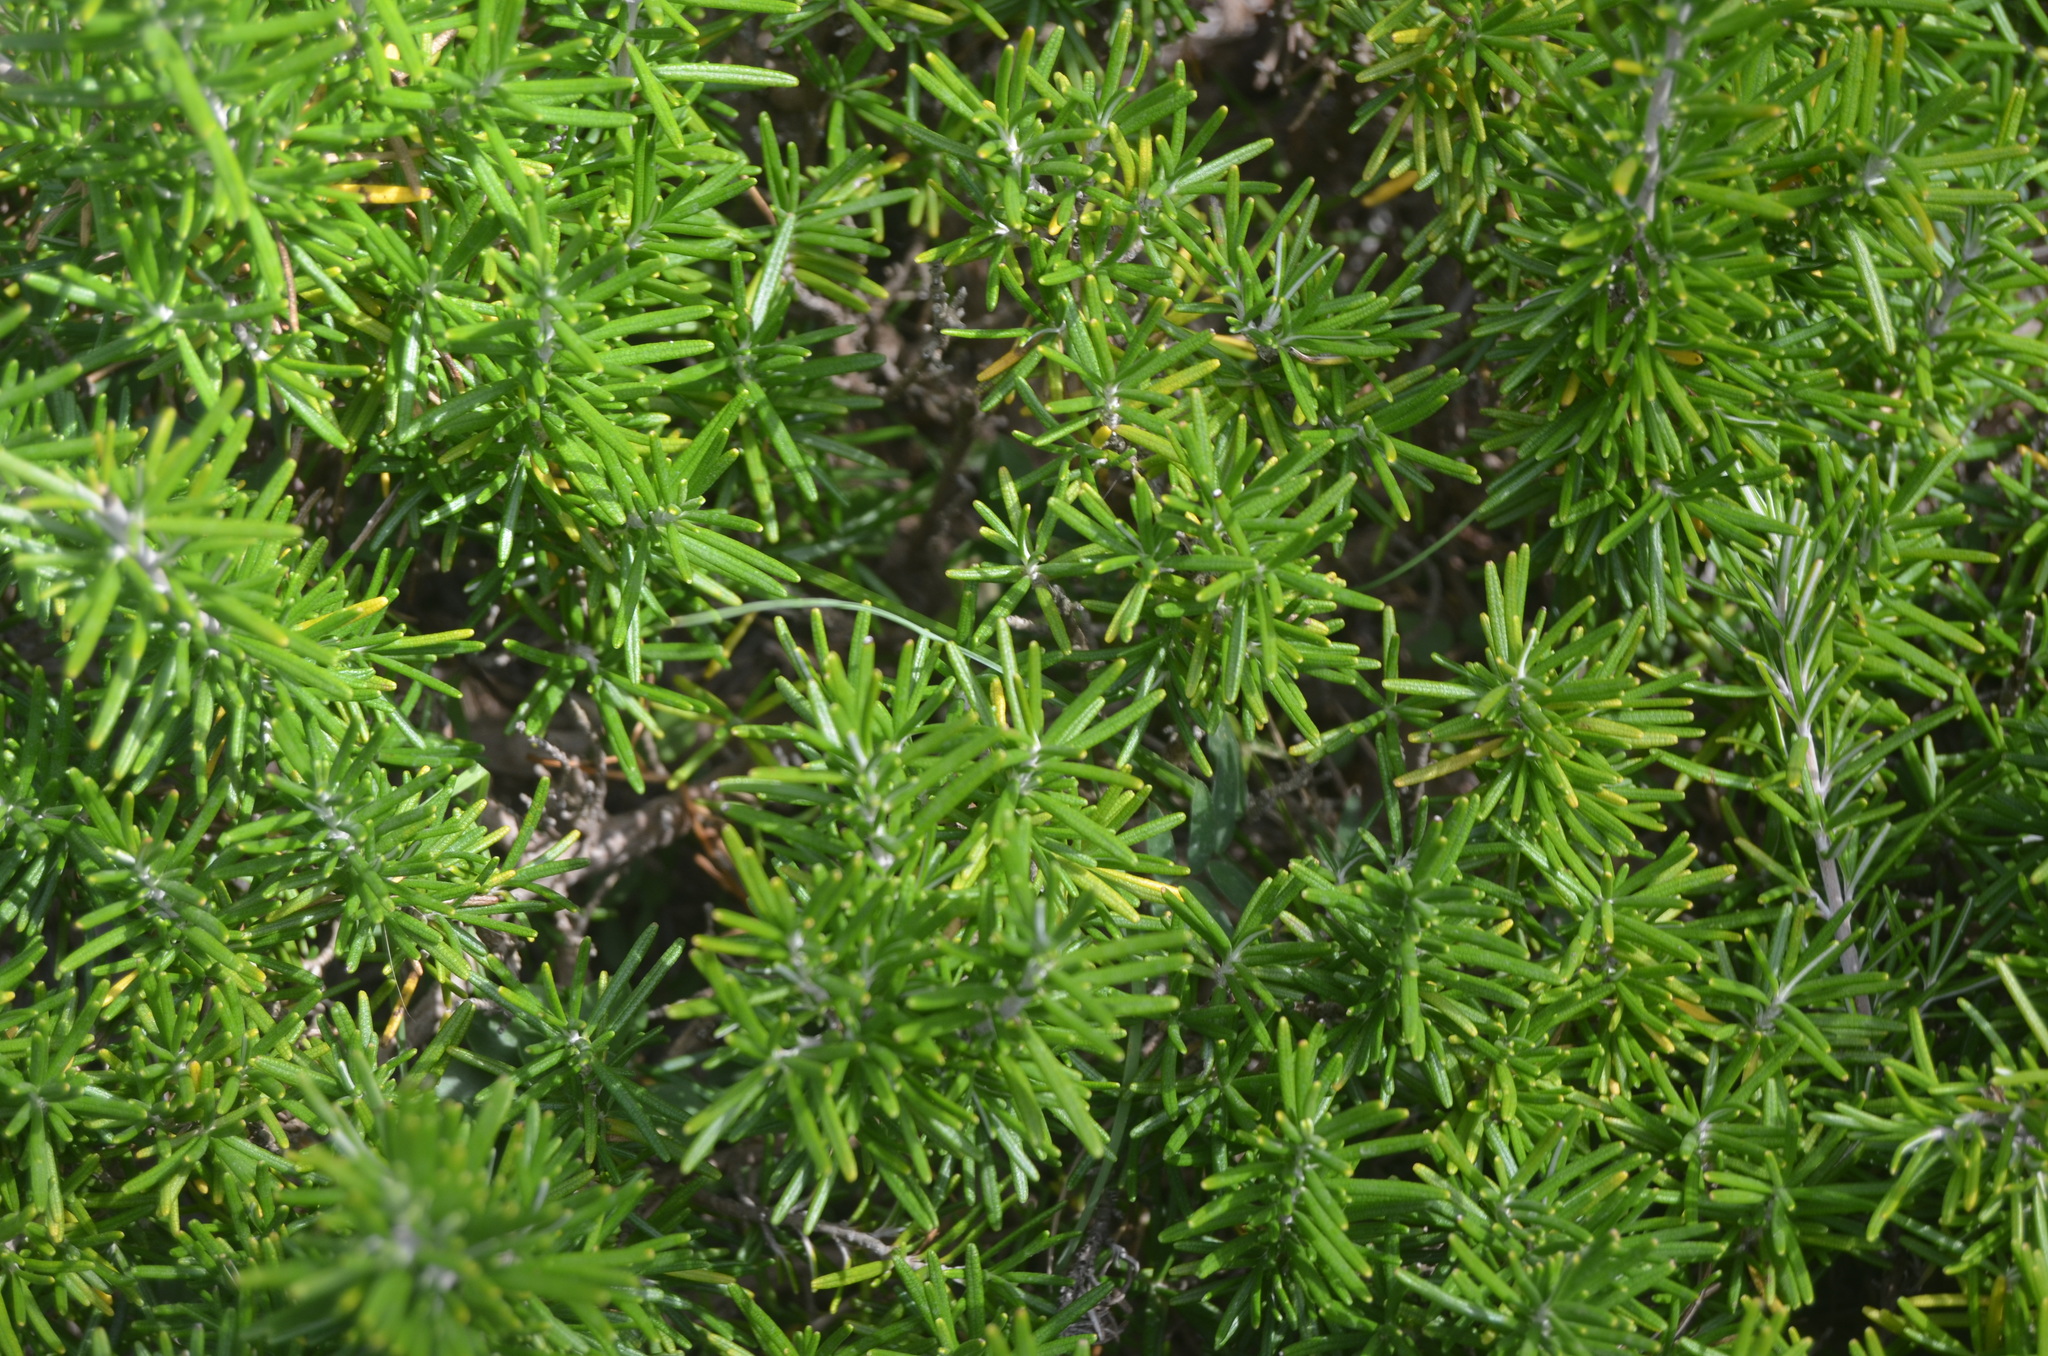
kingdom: Plantae
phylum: Tracheophyta
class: Magnoliopsida
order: Lamiales
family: Lamiaceae
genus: Salvia
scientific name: Salvia rosmarinus
